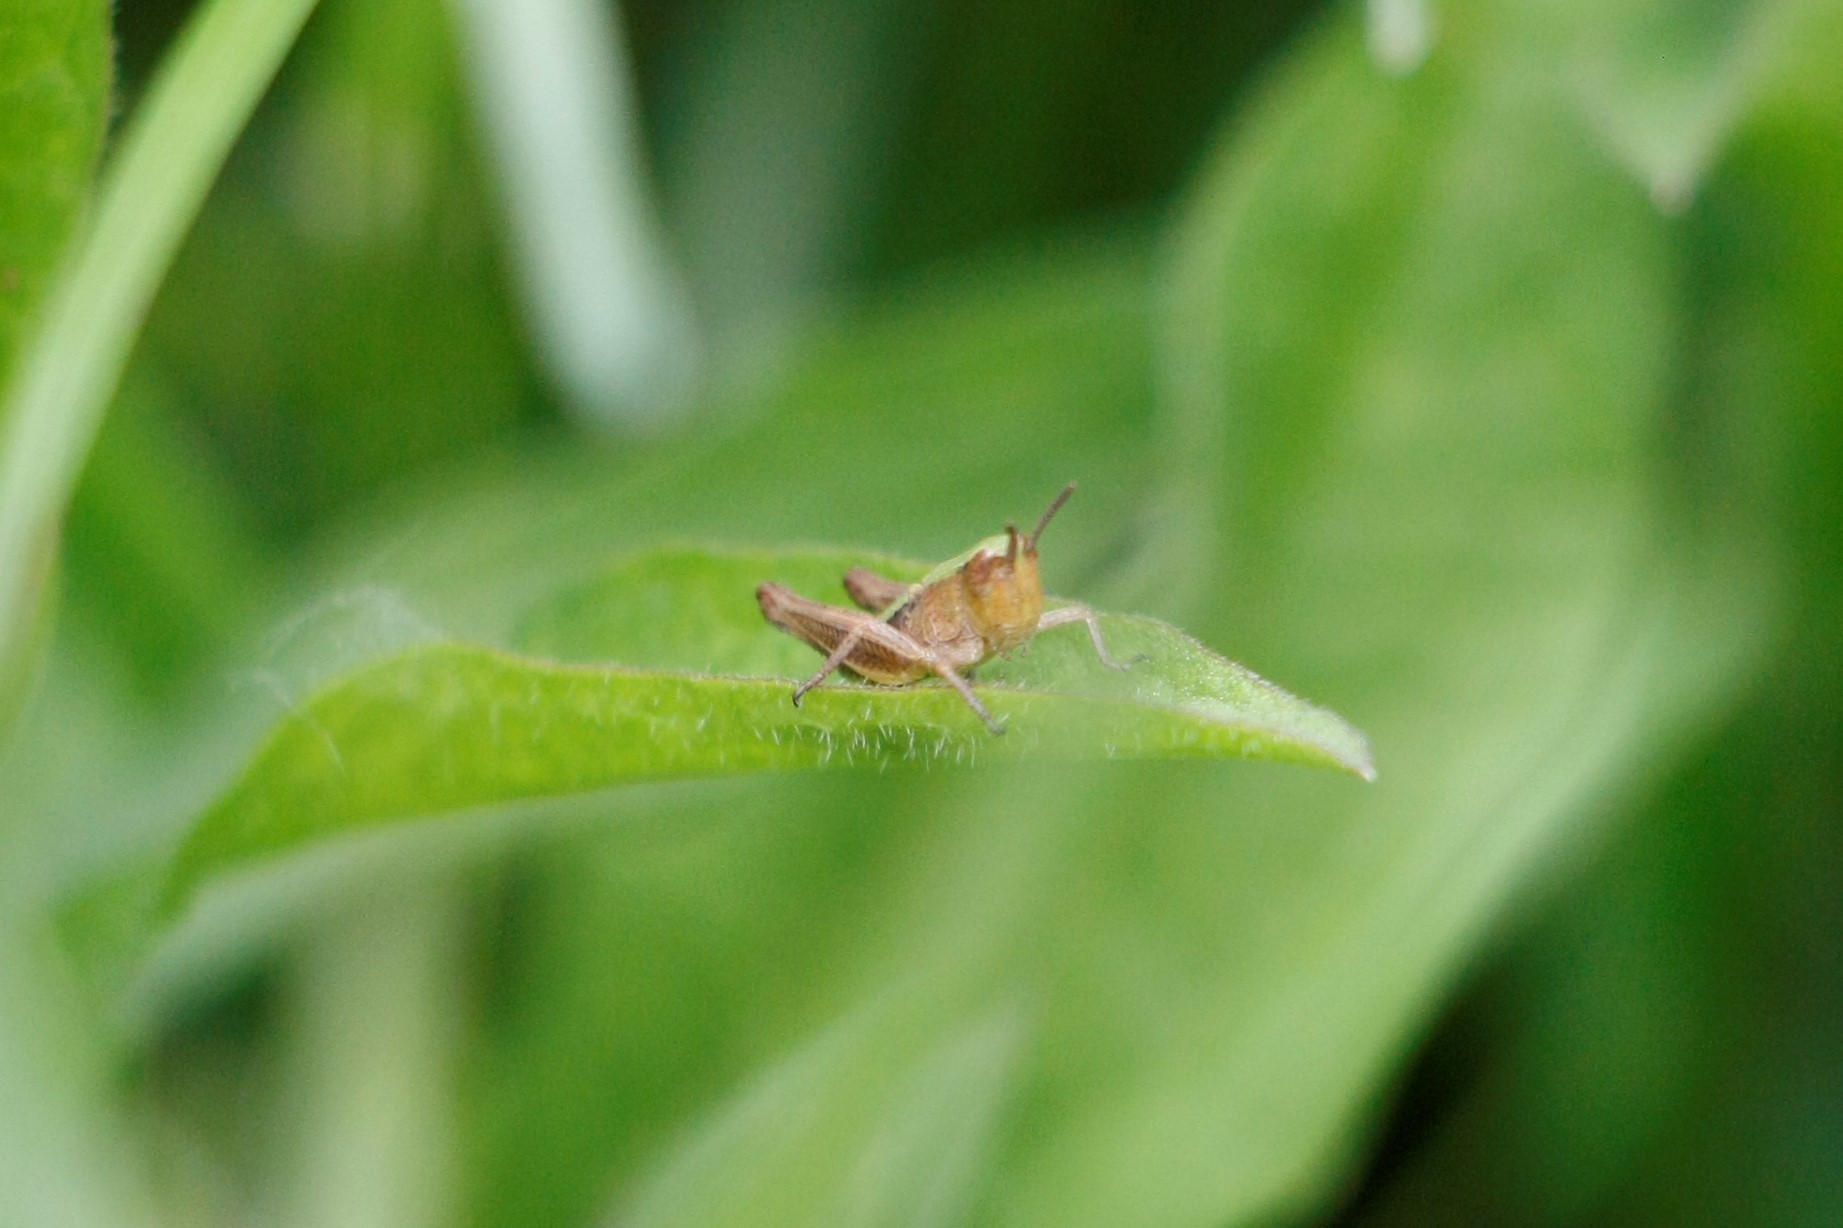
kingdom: Animalia
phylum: Arthropoda
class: Insecta
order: Orthoptera
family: Acrididae
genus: Pseudochorthippus
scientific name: Pseudochorthippus parallelus
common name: Meadow grasshopper
